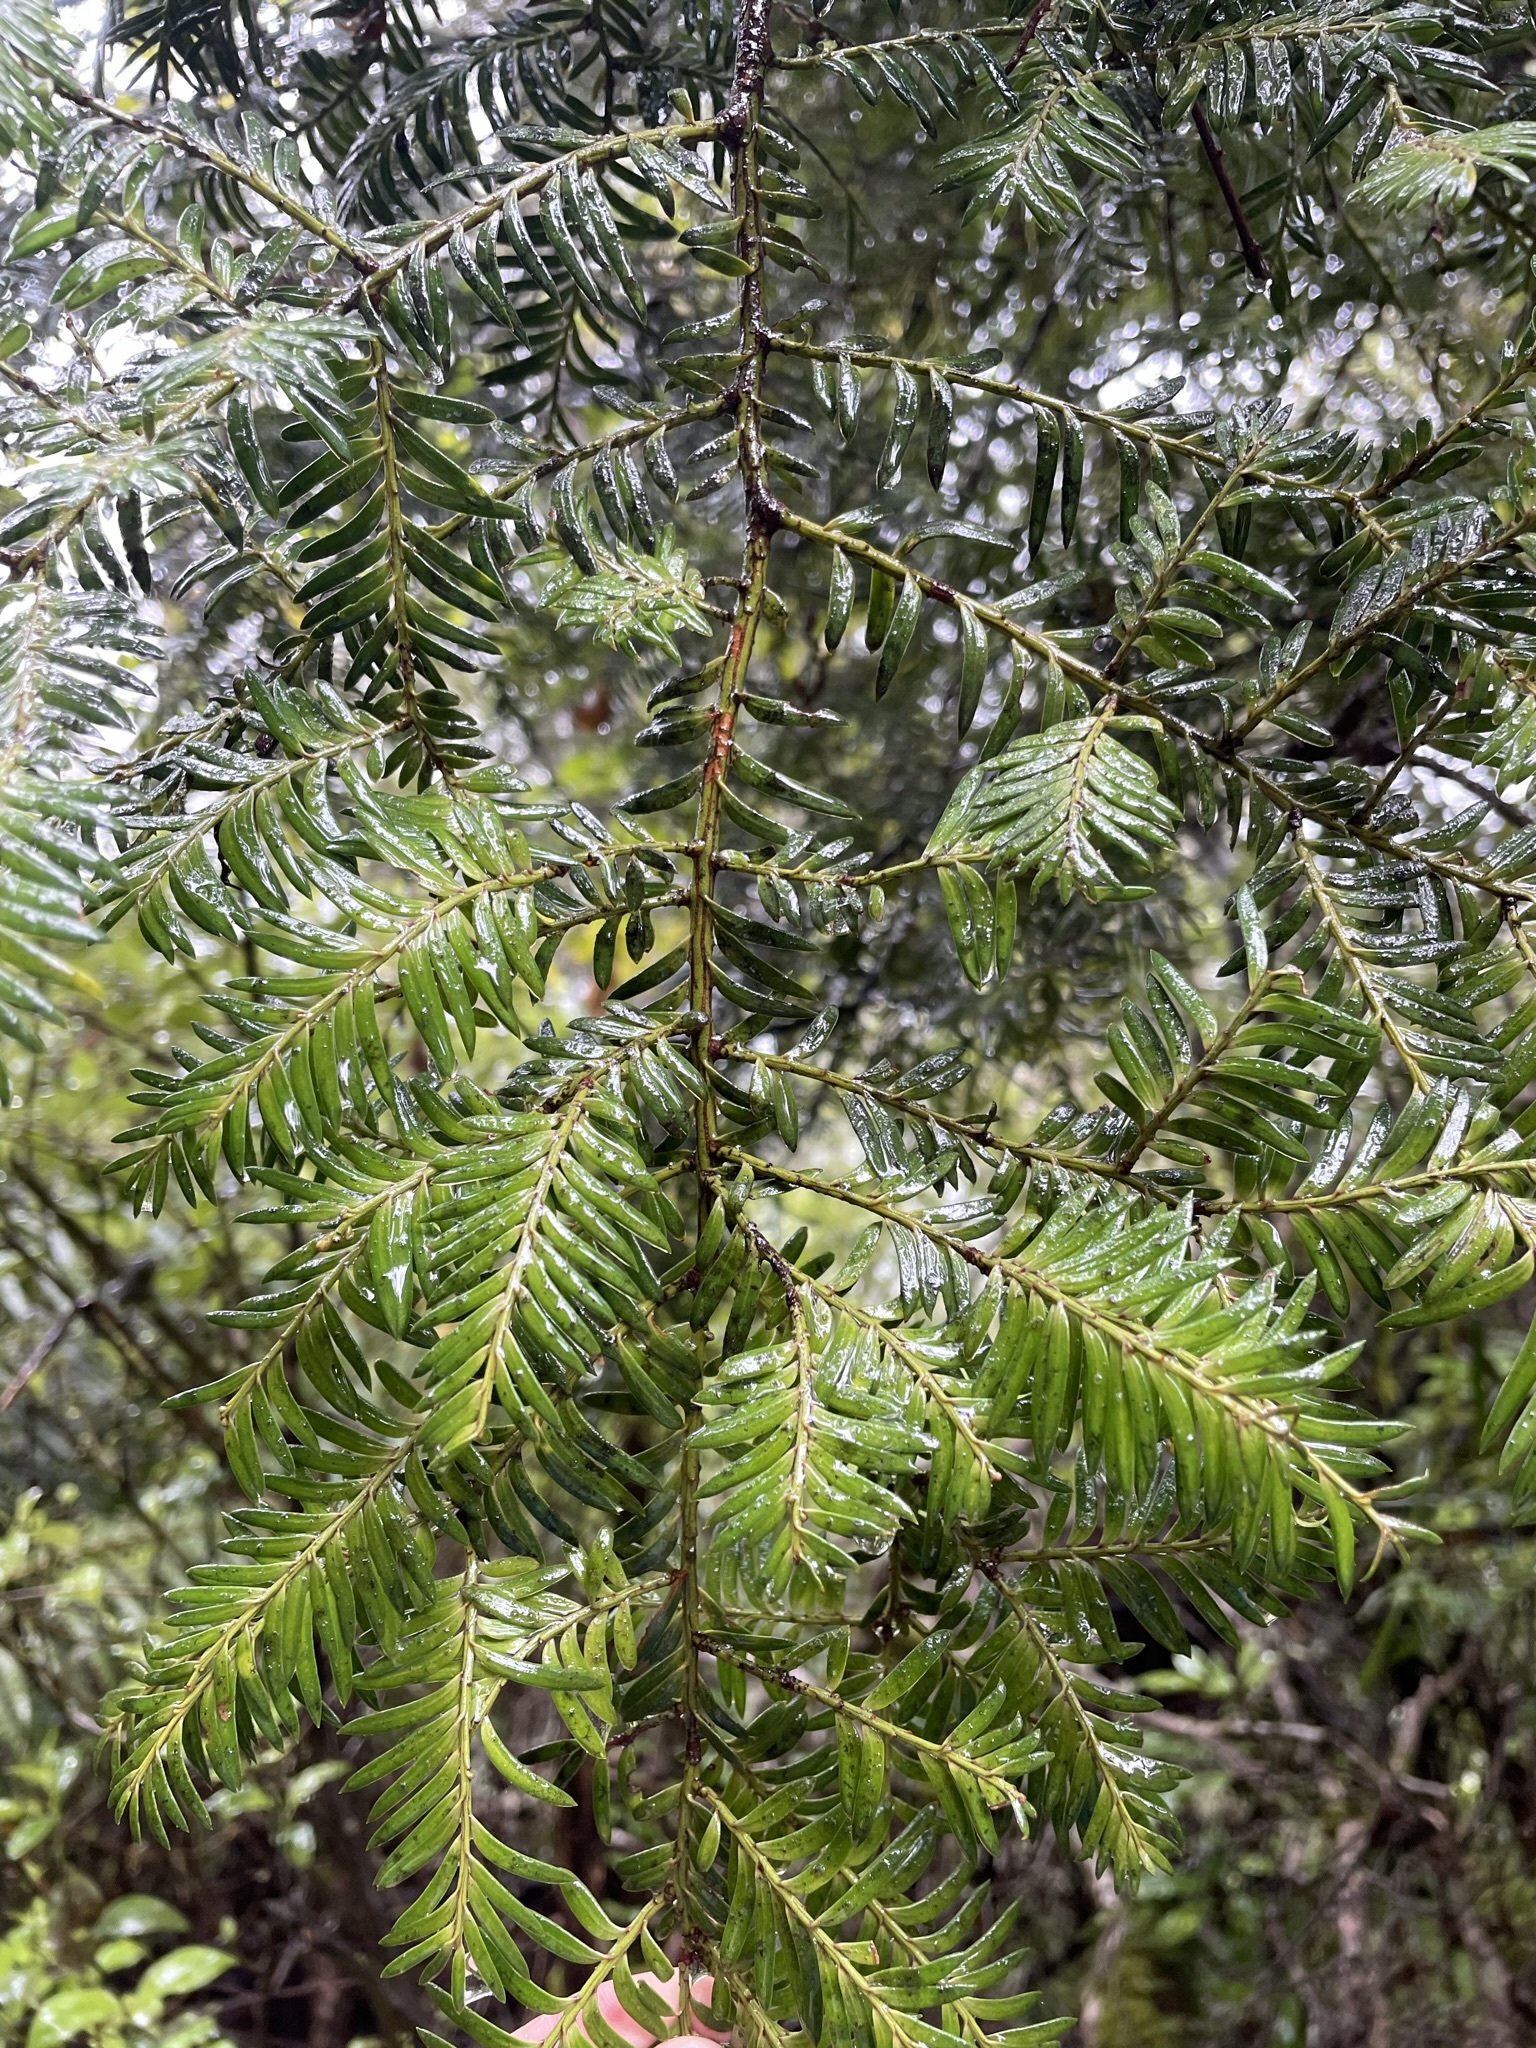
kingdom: Plantae
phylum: Tracheophyta
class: Pinopsida
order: Pinales
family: Podocarpaceae
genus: Prumnopitys
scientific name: Prumnopitys ferruginea
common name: Brown pine
